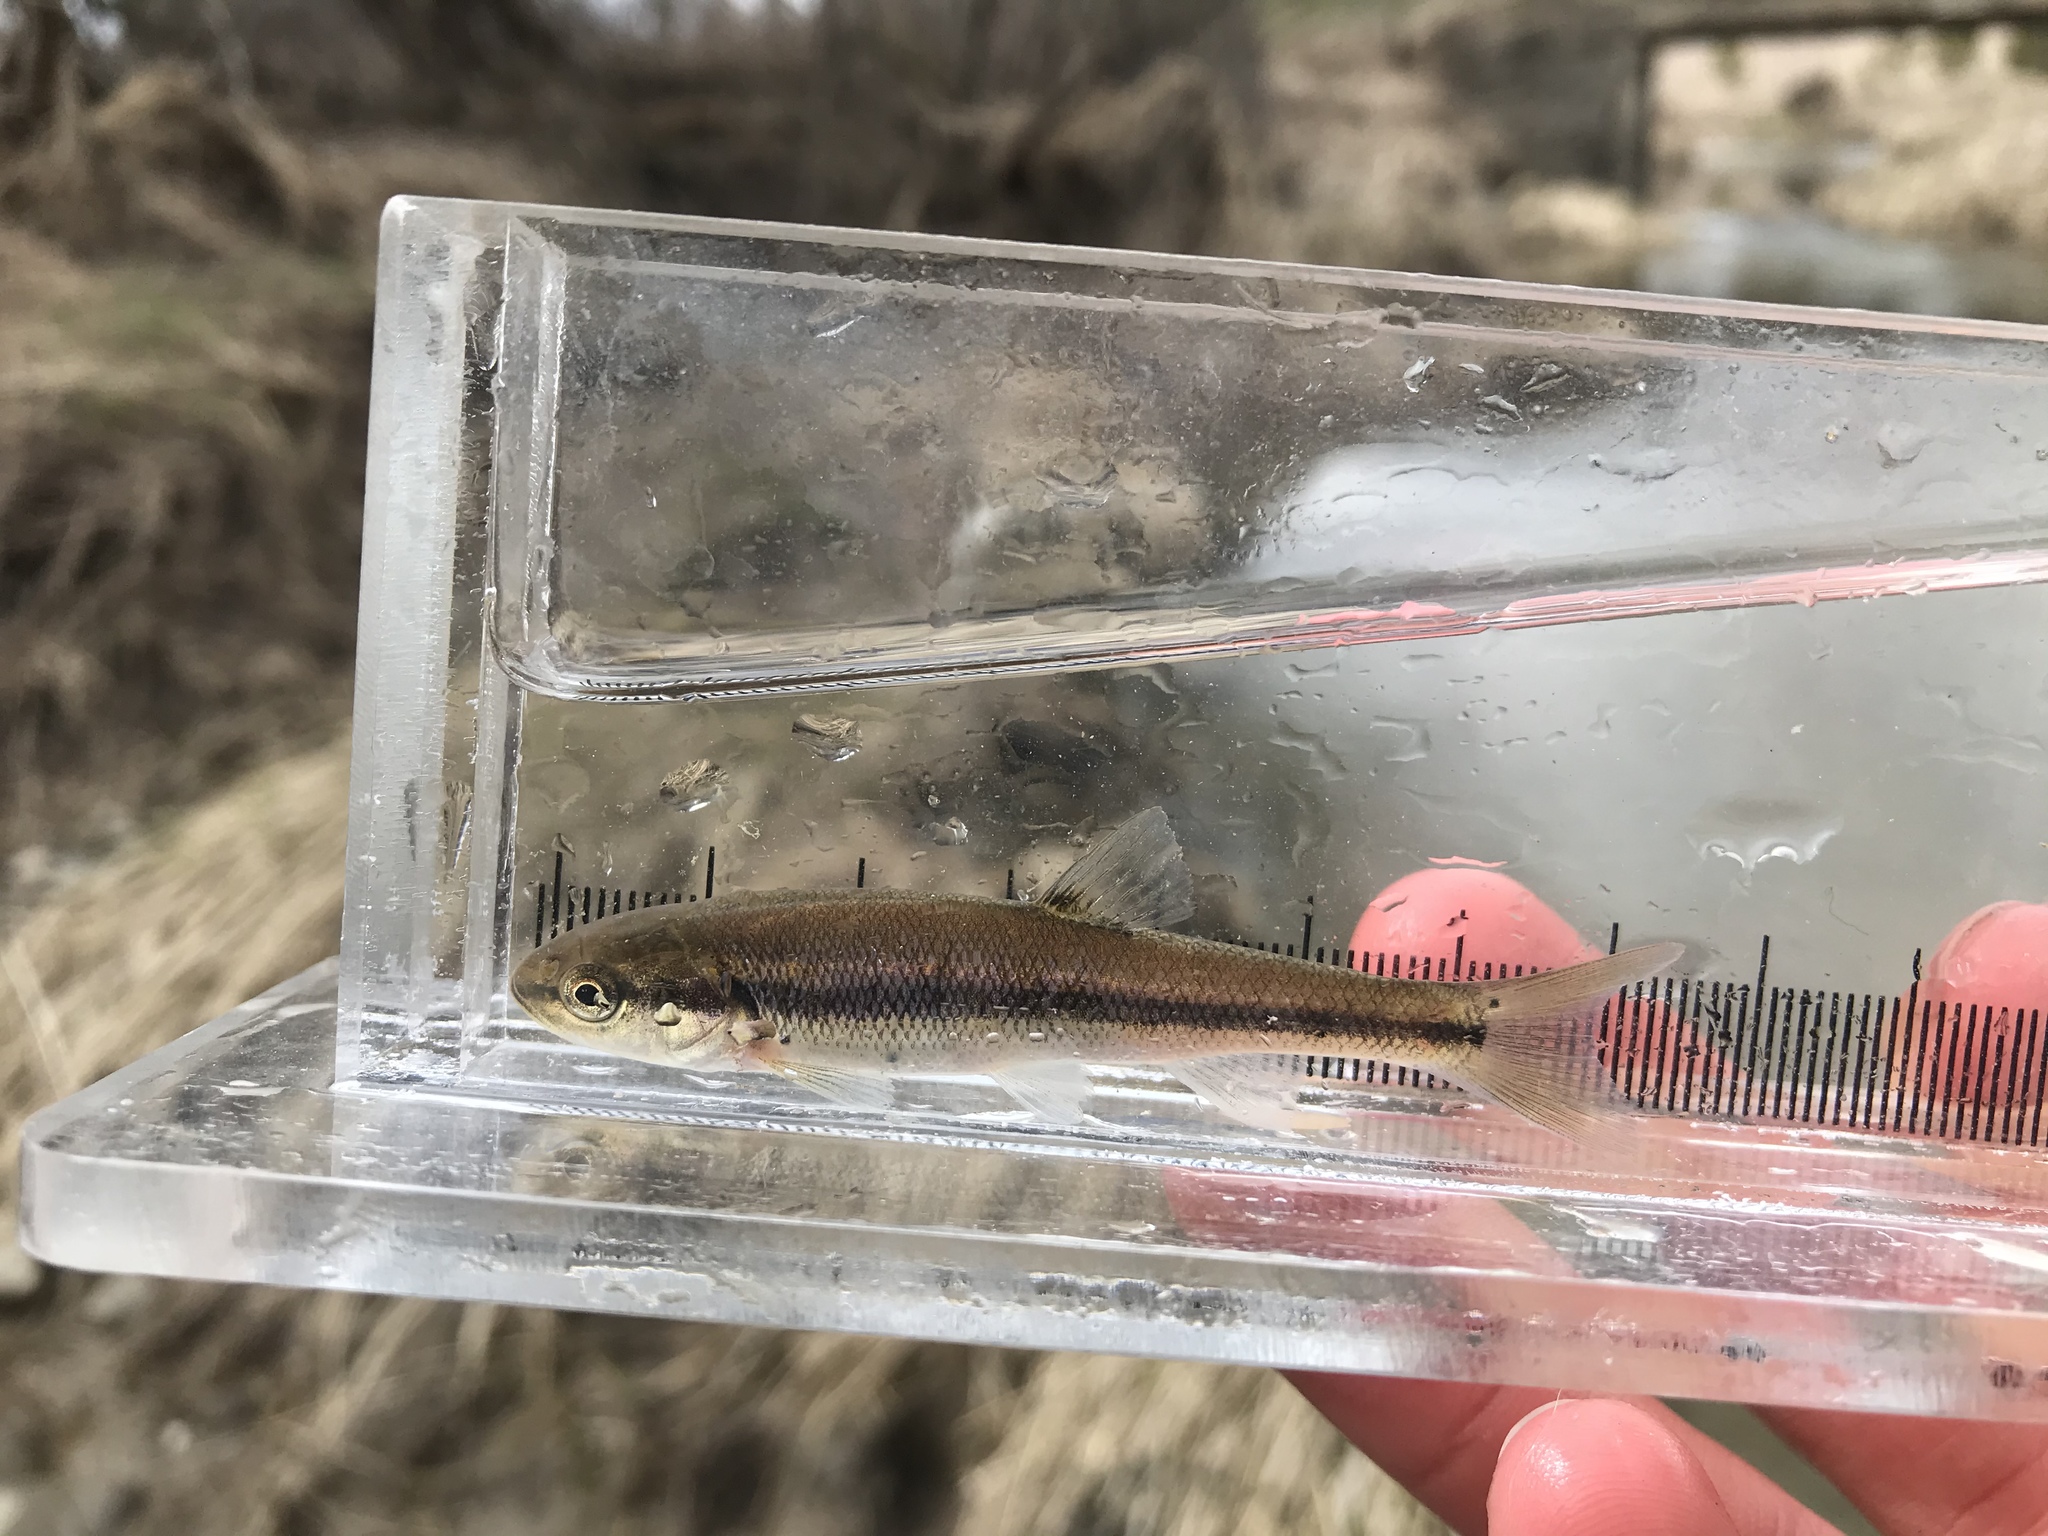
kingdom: Animalia
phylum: Chordata
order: Cypriniformes
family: Cyprinidae
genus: Semotilus
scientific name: Semotilus atromaculatus
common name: Creek chub
